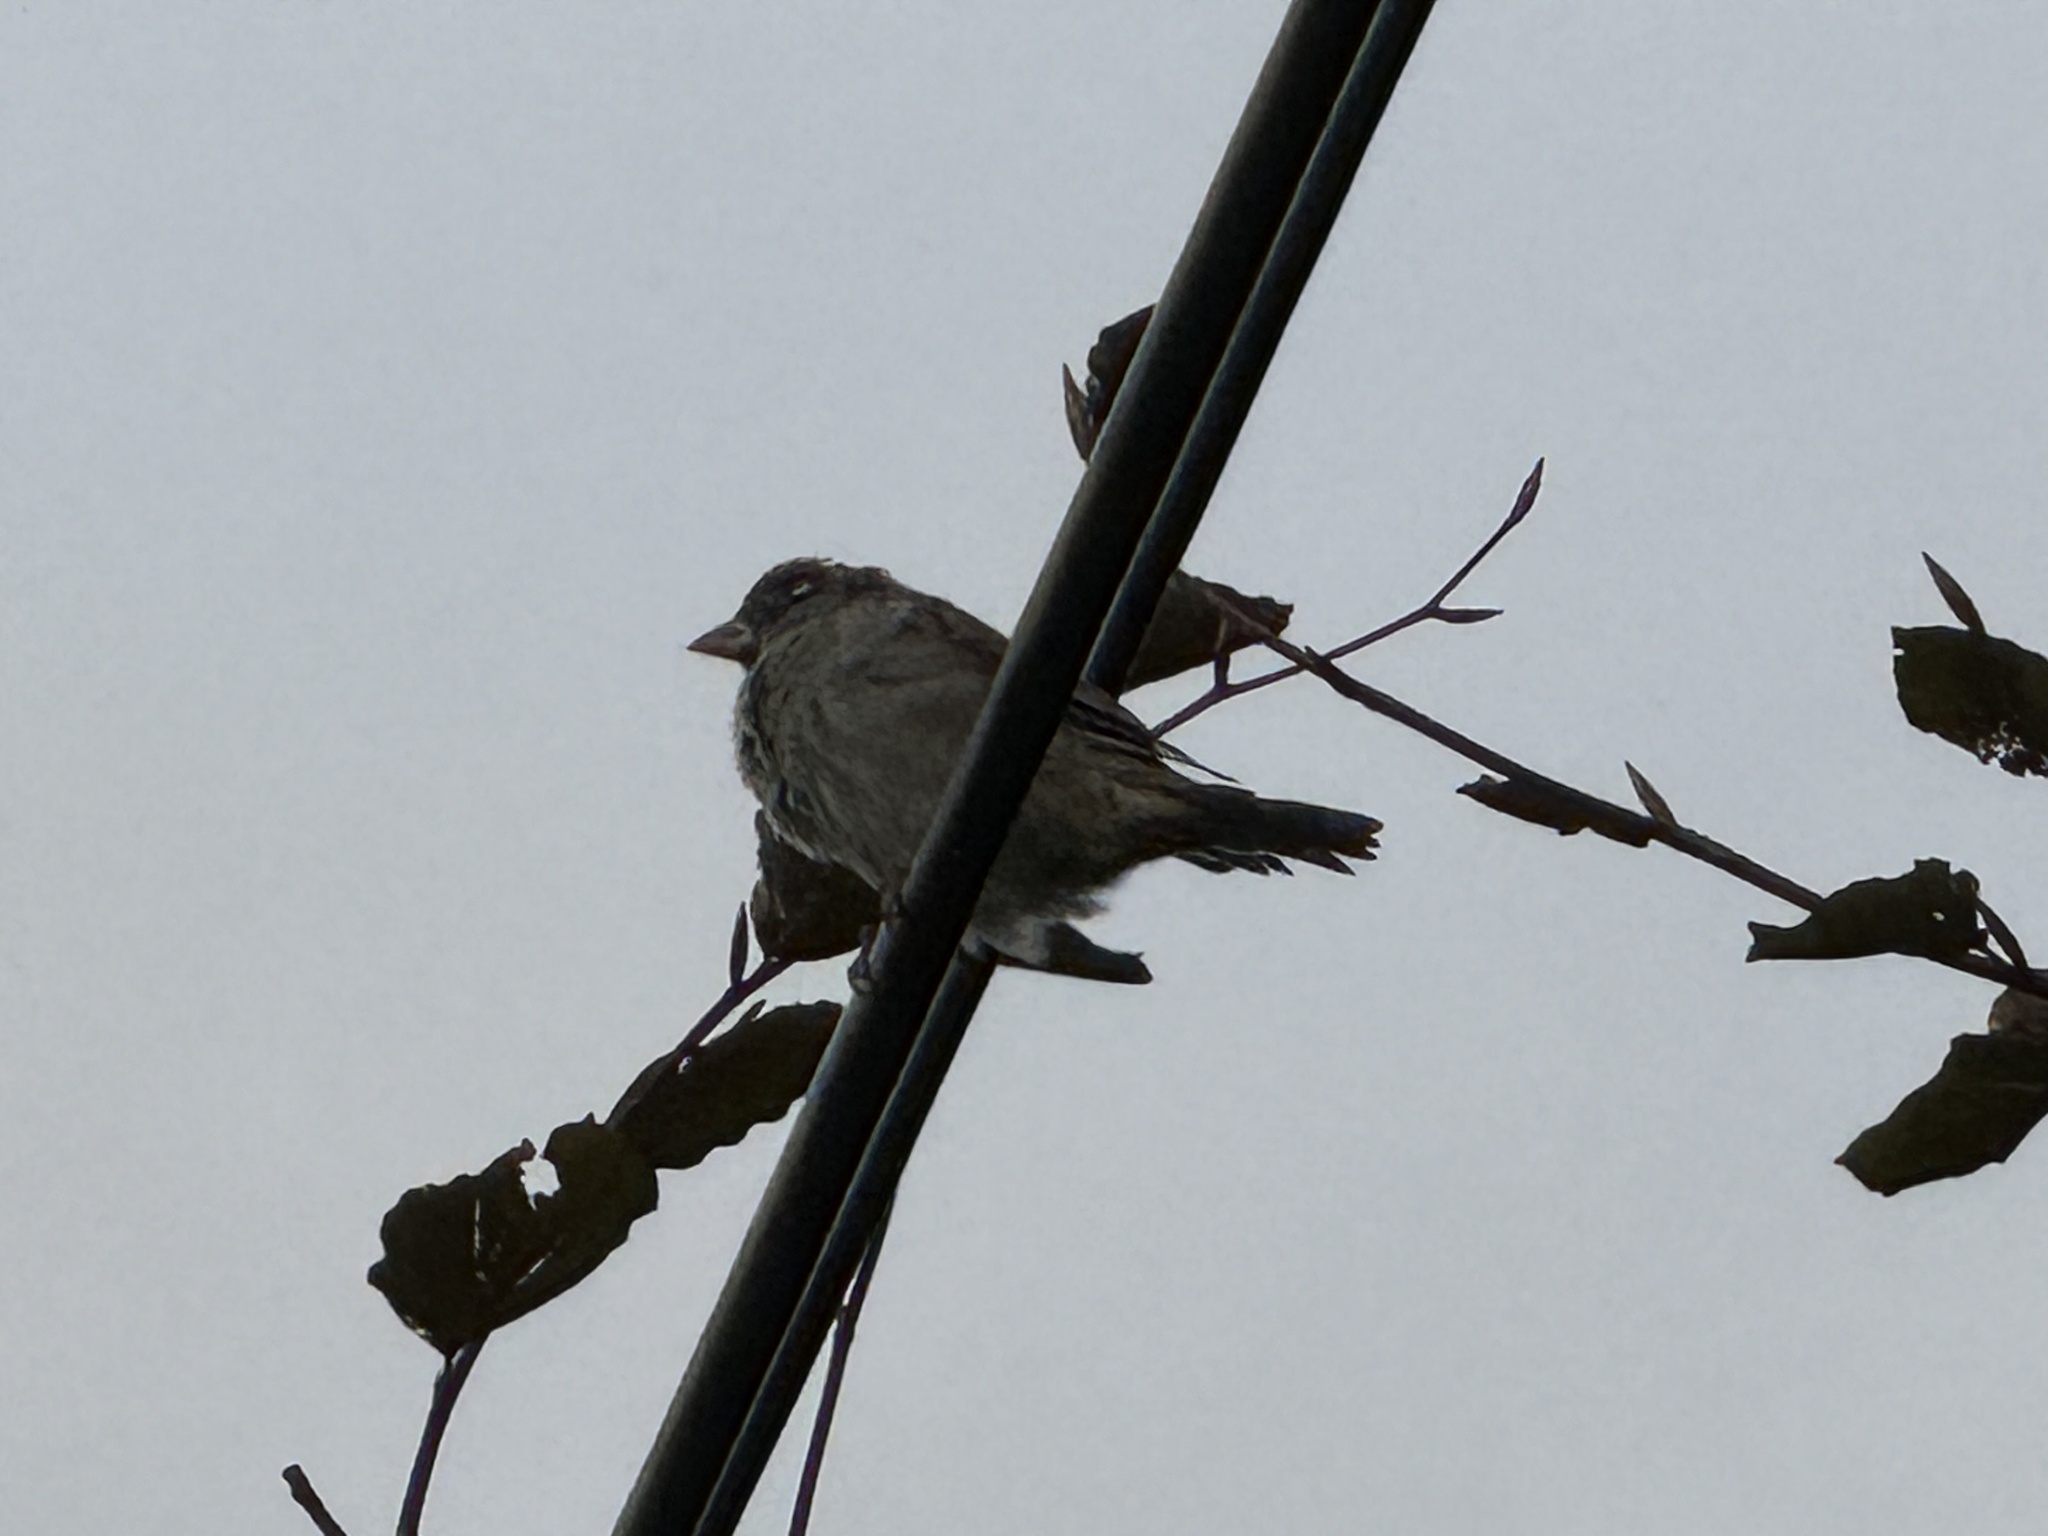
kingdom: Animalia
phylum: Chordata
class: Aves
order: Passeriformes
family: Passeridae
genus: Passer
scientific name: Passer domesticus
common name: House sparrow
